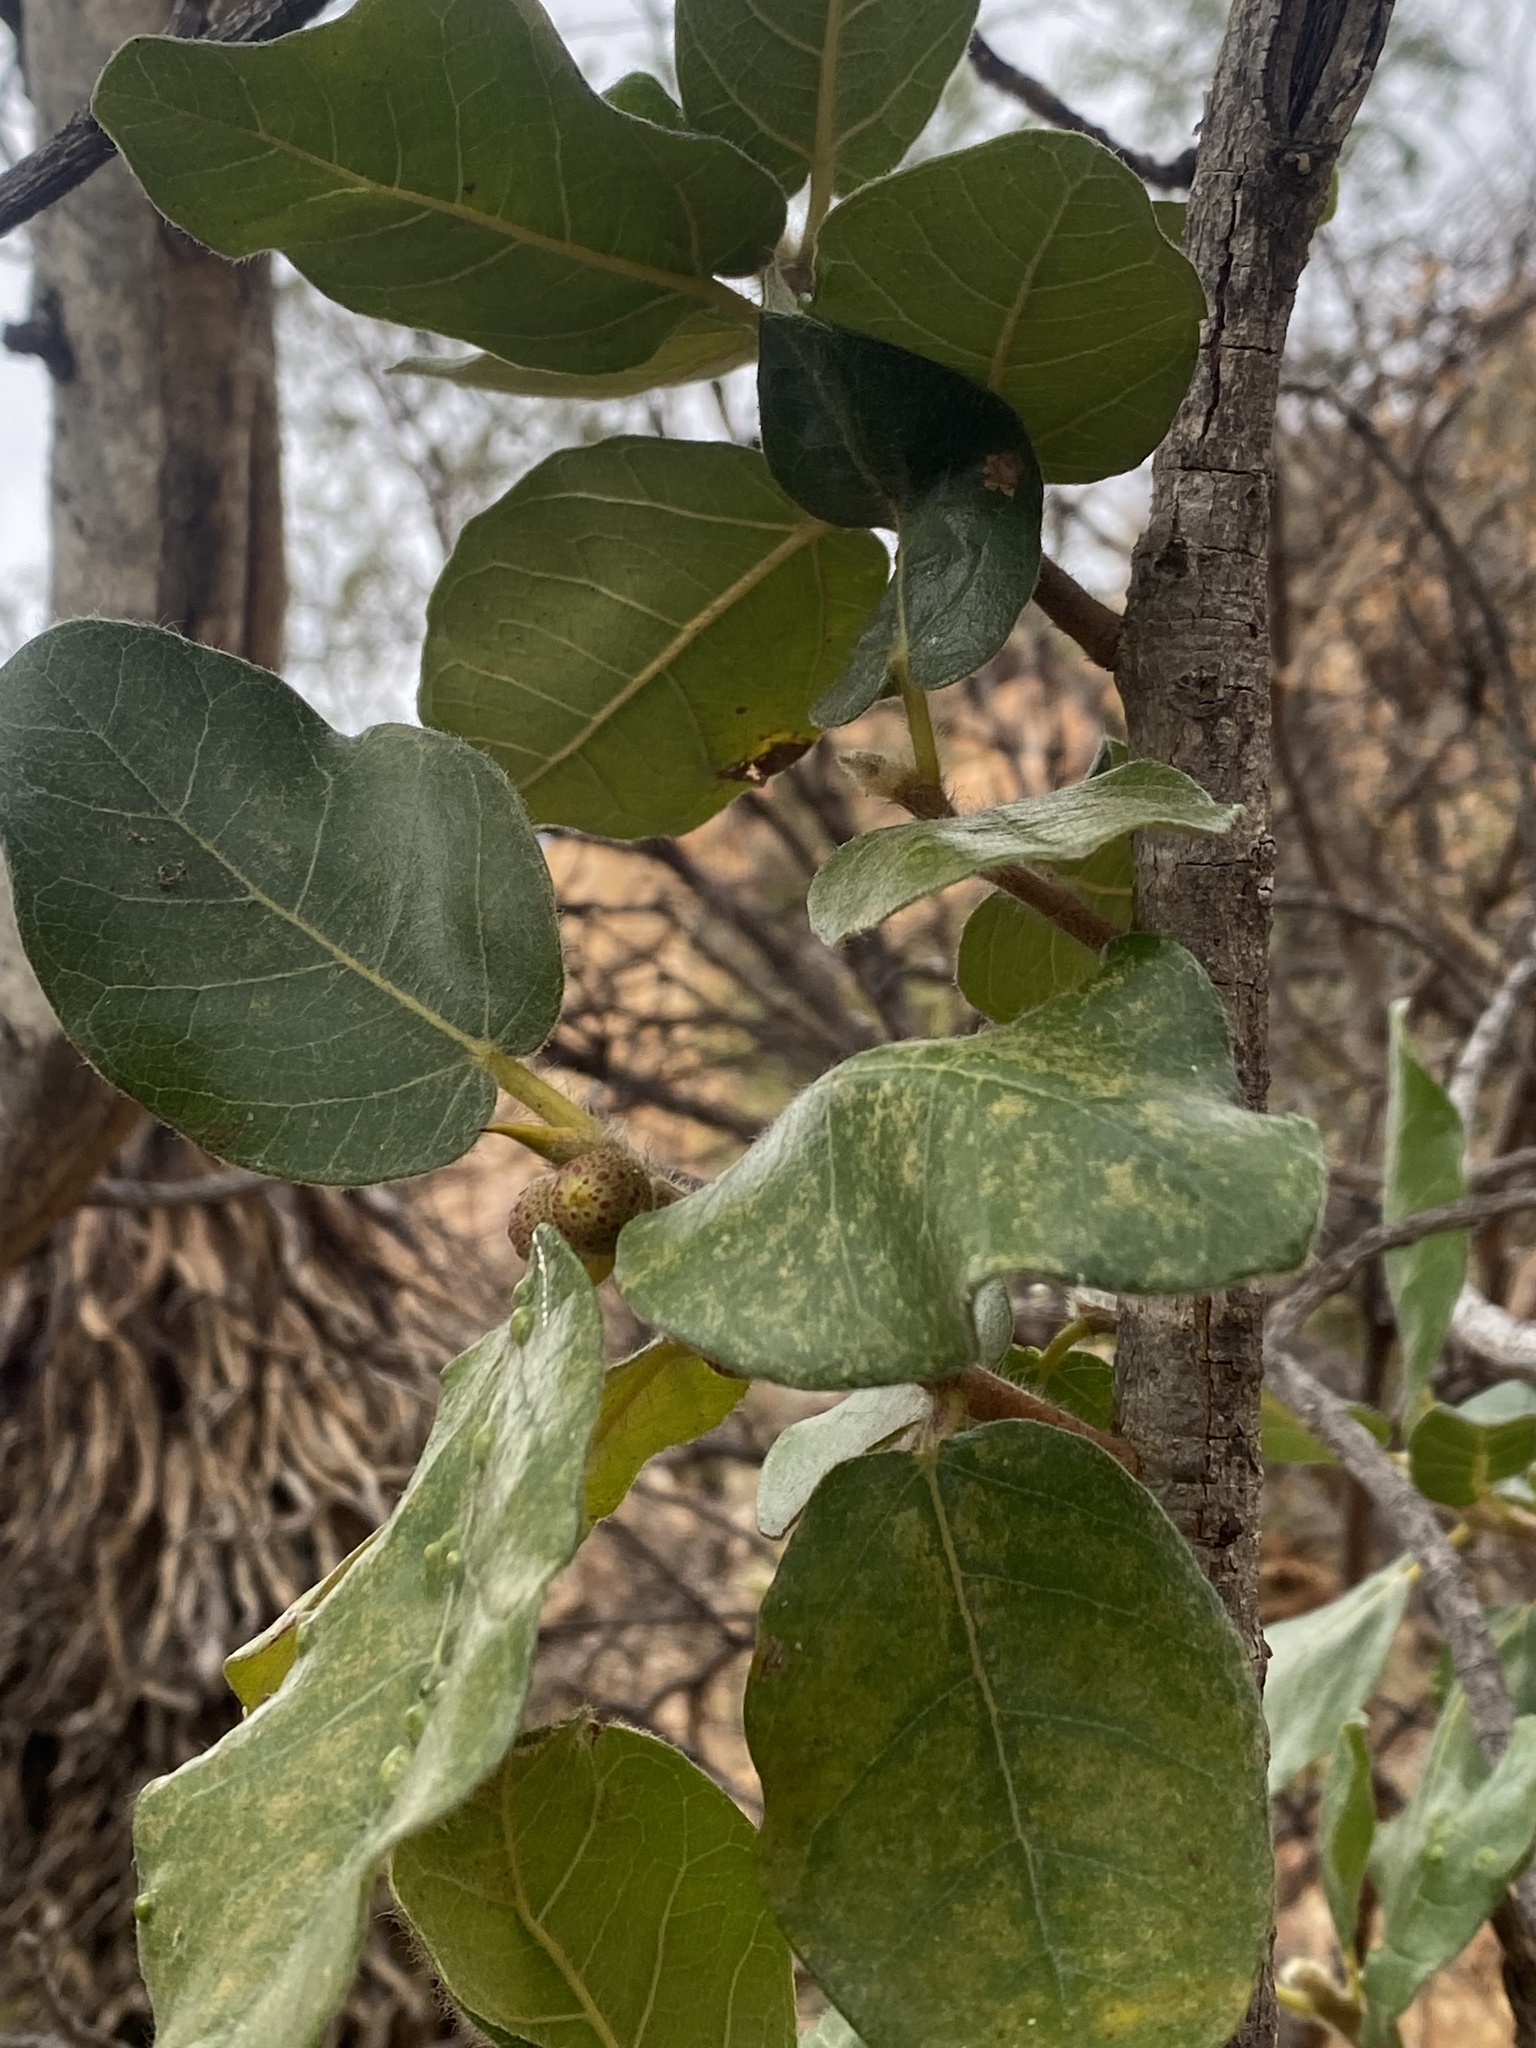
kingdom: Plantae
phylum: Tracheophyta
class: Magnoliopsida
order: Rosales
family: Moraceae
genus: Ficus
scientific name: Ficus glumosa
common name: Hairy rock fig
